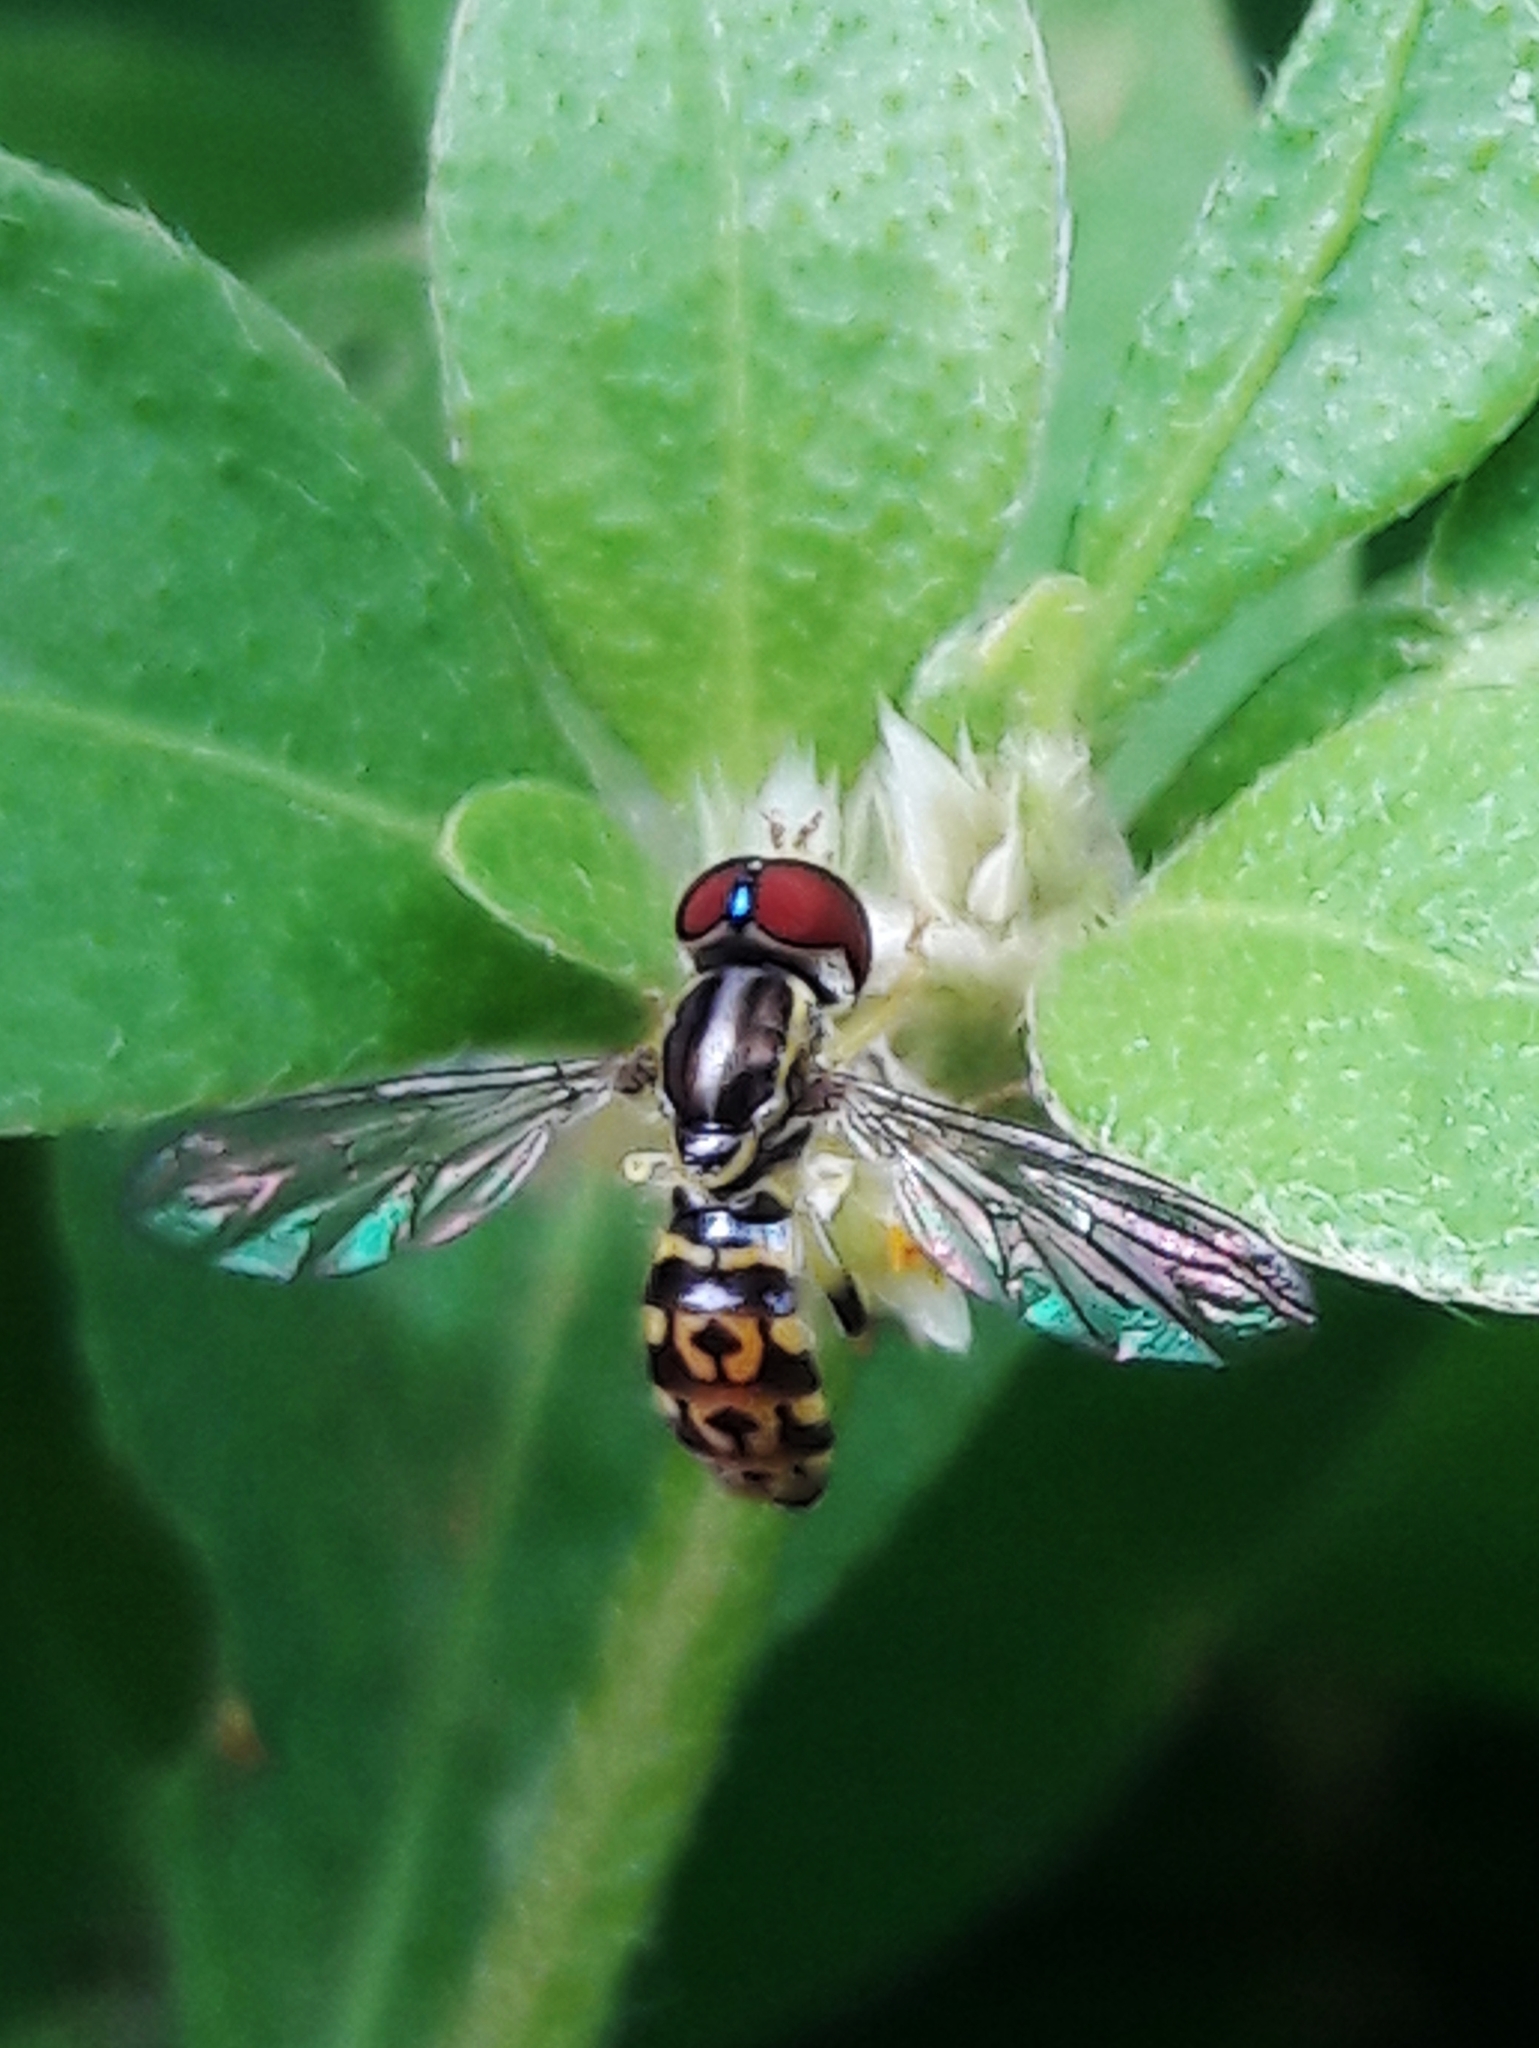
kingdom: Animalia
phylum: Arthropoda
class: Insecta
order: Diptera
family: Syrphidae
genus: Toxomerus
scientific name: Toxomerus virgulatus
